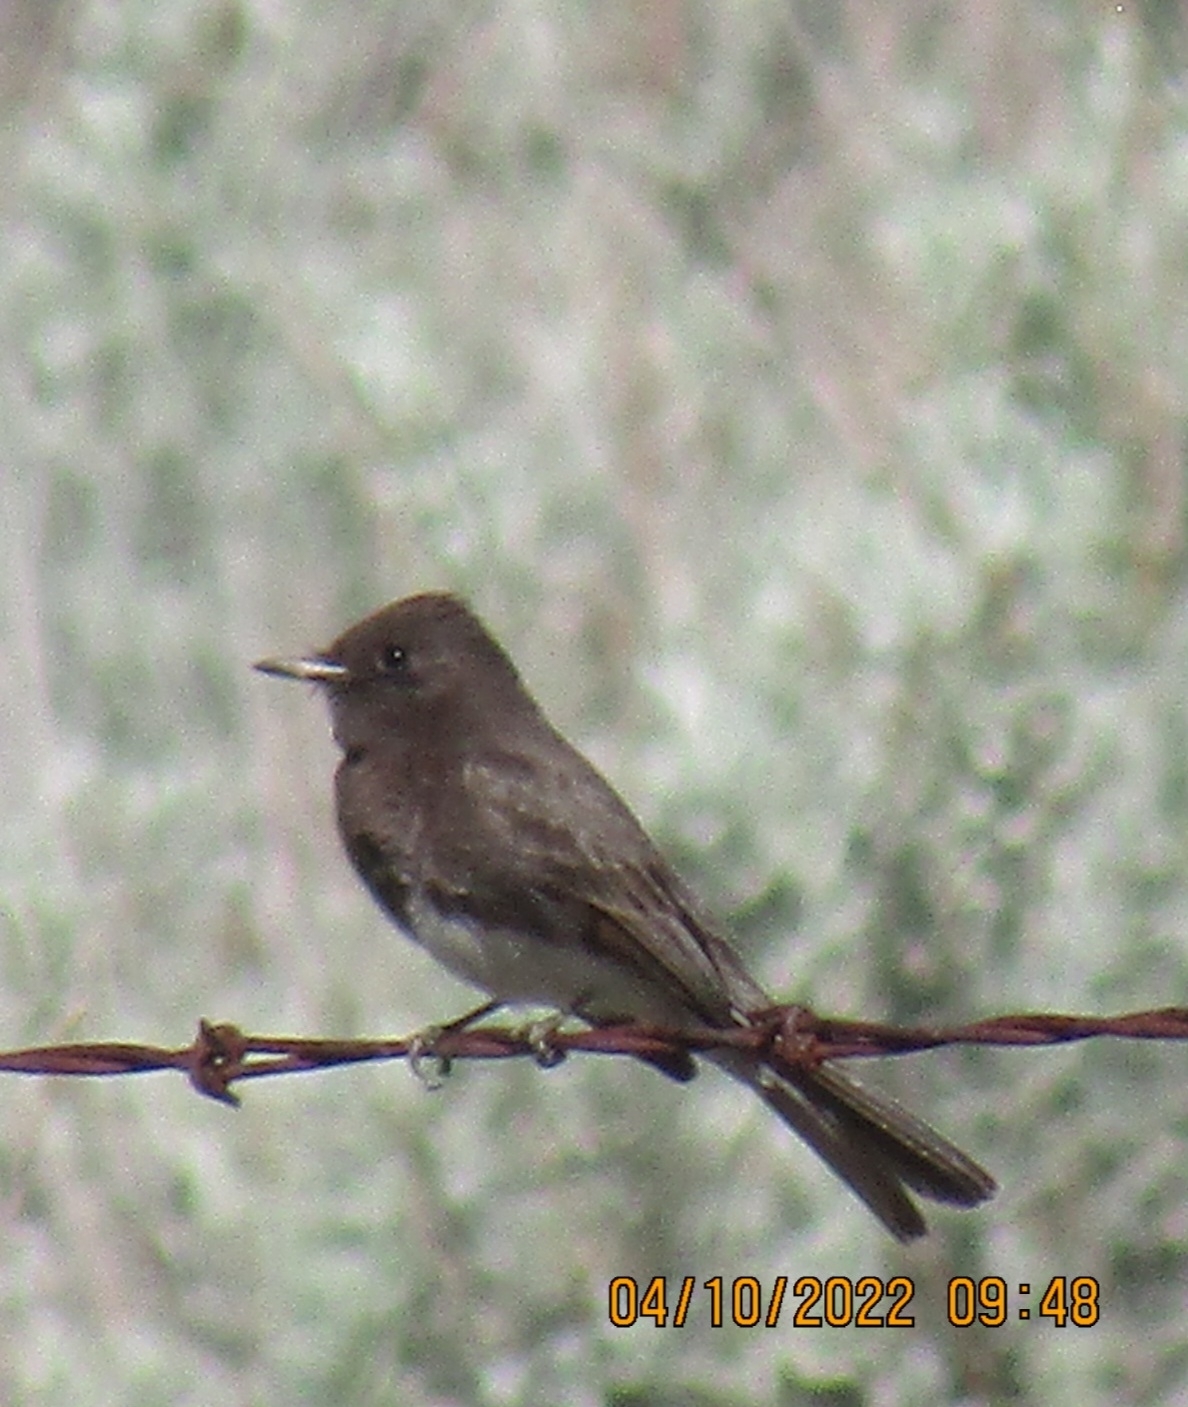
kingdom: Animalia
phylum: Chordata
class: Aves
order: Passeriformes
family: Tyrannidae
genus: Sayornis
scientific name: Sayornis nigricans
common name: Black phoebe
